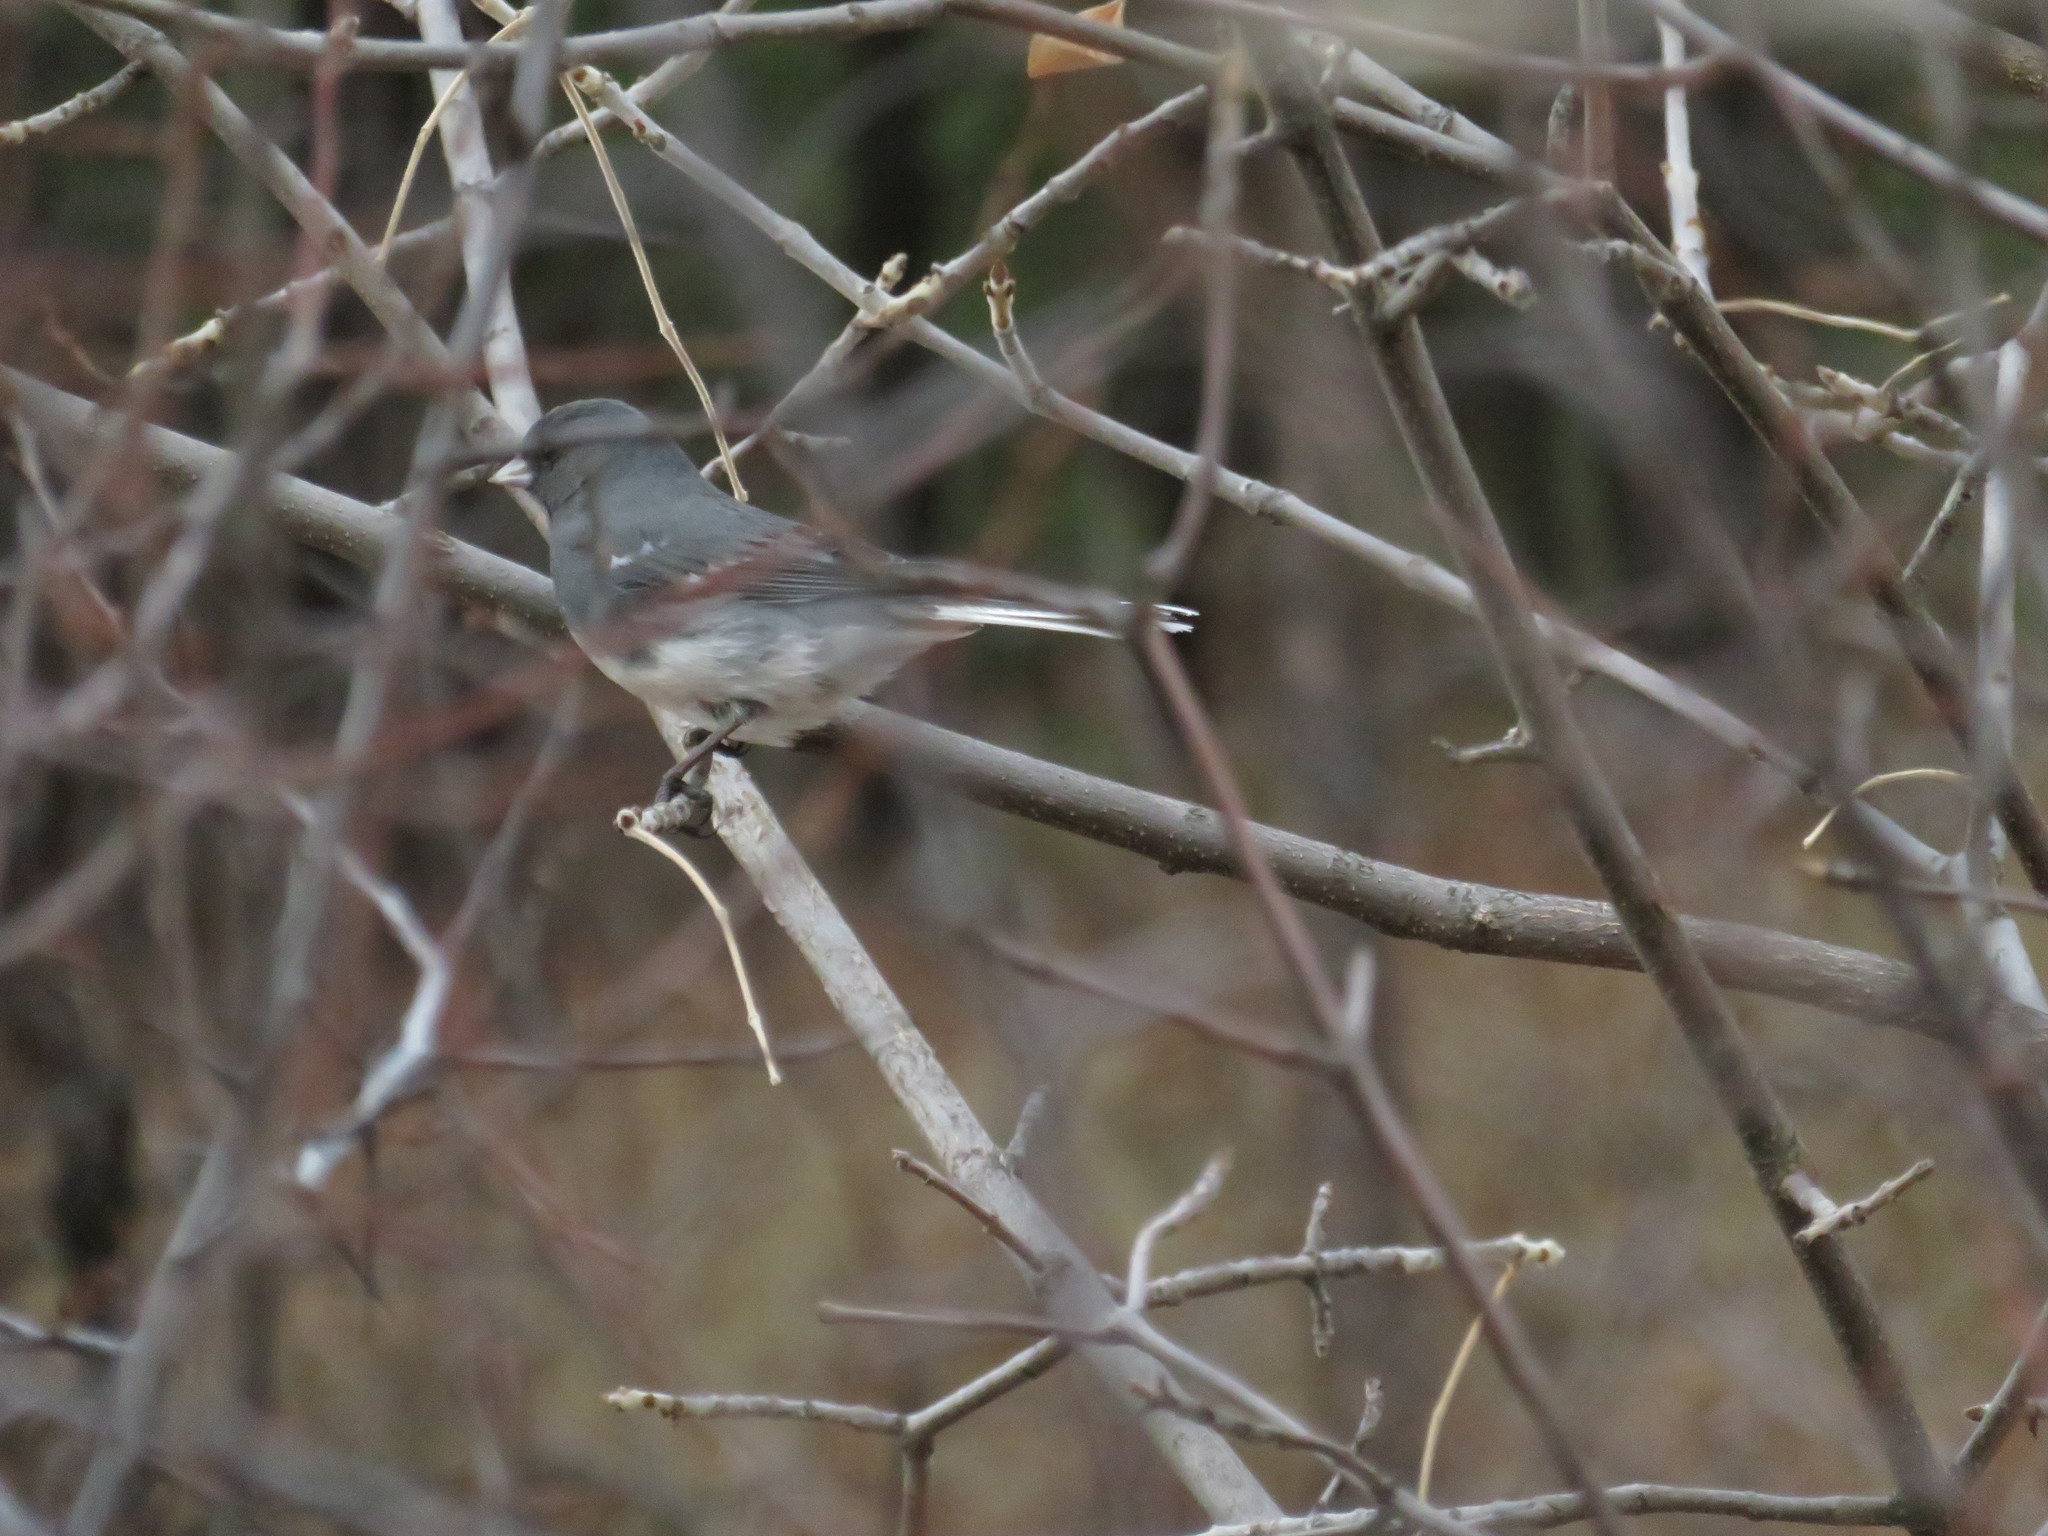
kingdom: Animalia
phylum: Chordata
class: Aves
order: Passeriformes
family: Passerellidae
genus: Junco
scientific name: Junco hyemalis
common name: Dark-eyed junco
